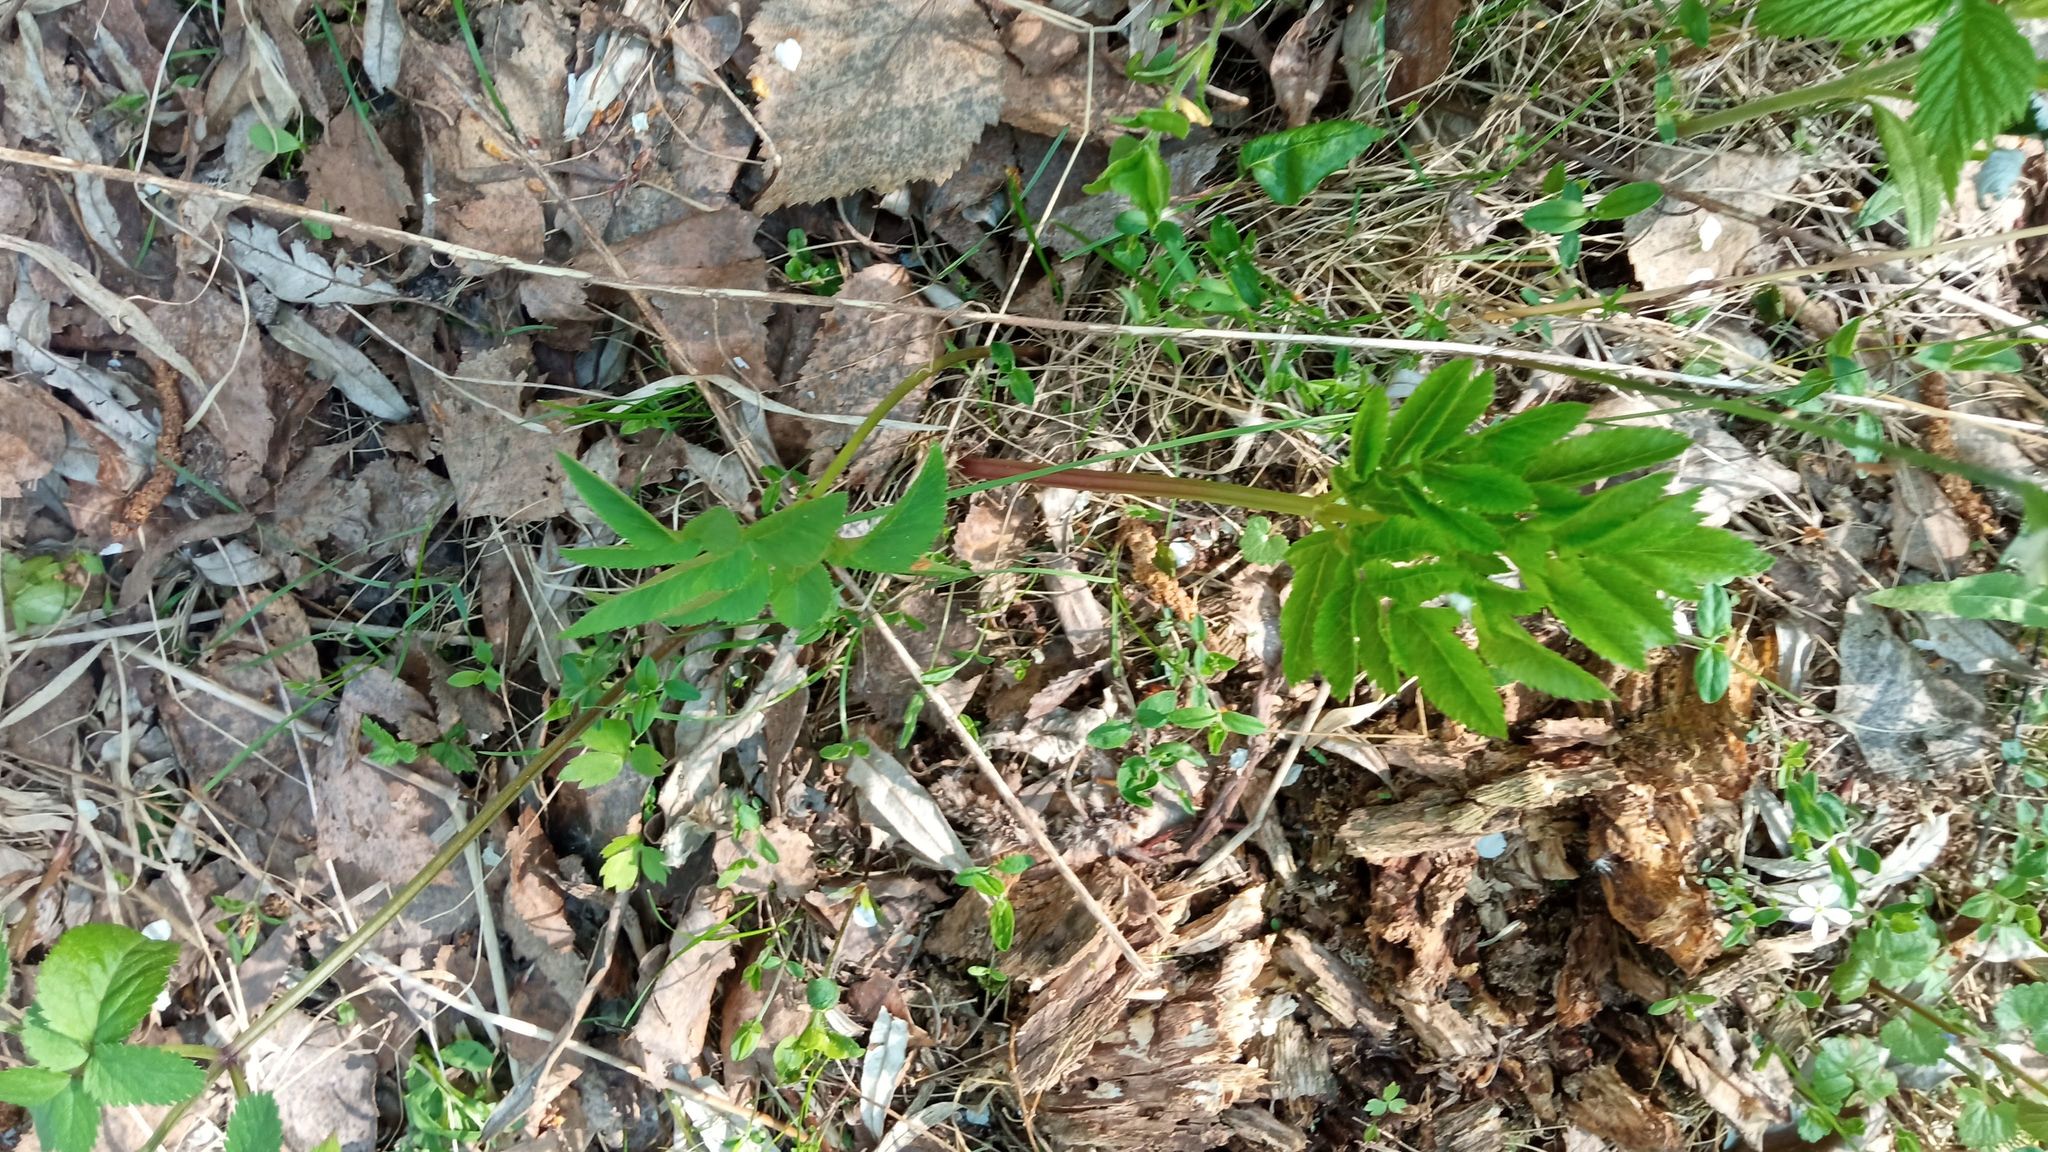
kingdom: Plantae
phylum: Tracheophyta
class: Magnoliopsida
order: Apiales
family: Apiaceae
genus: Angelica
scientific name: Angelica sylvestris
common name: Wild angelica
